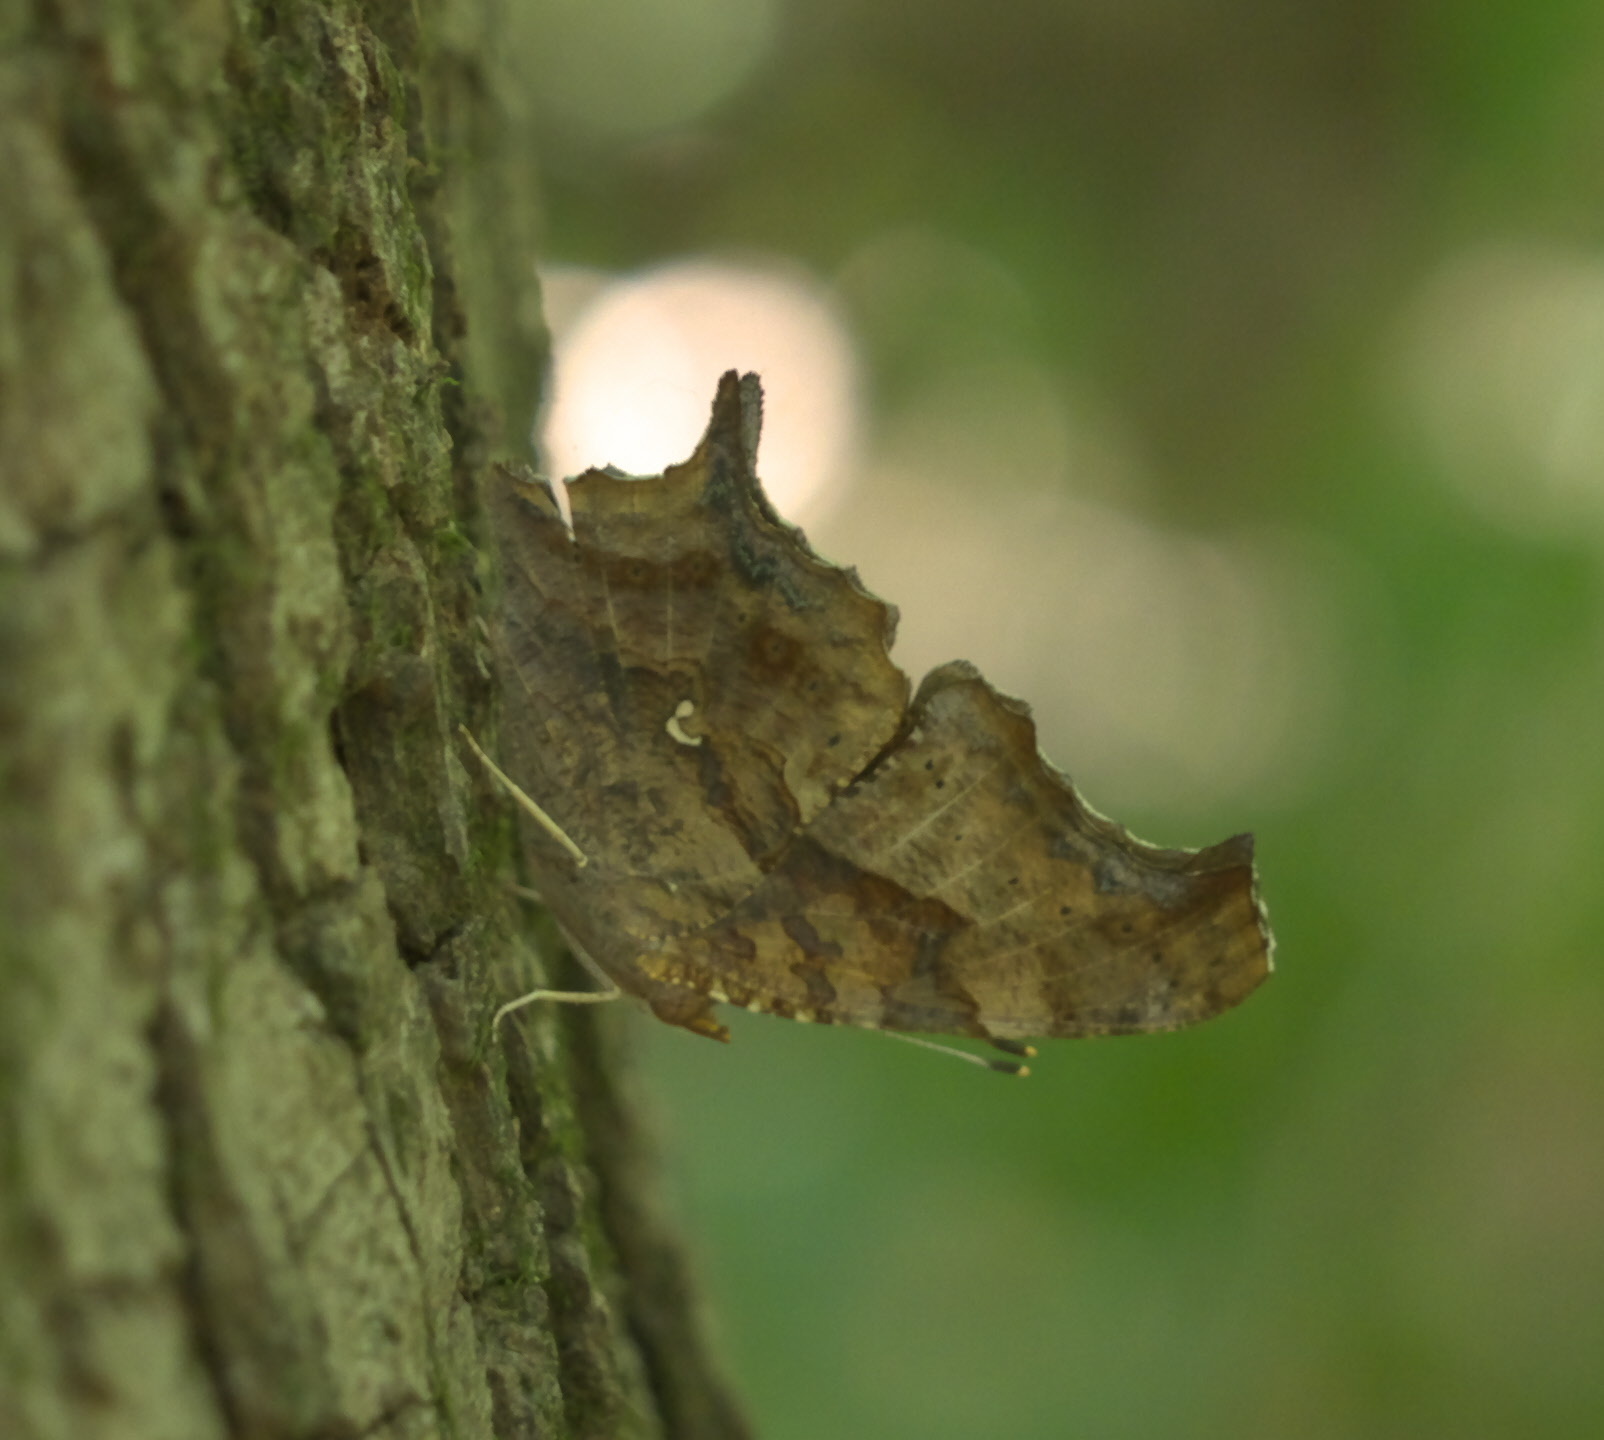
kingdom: Animalia
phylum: Arthropoda
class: Insecta
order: Lepidoptera
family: Nymphalidae
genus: Polygonia
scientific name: Polygonia interrogationis
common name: Question mark
